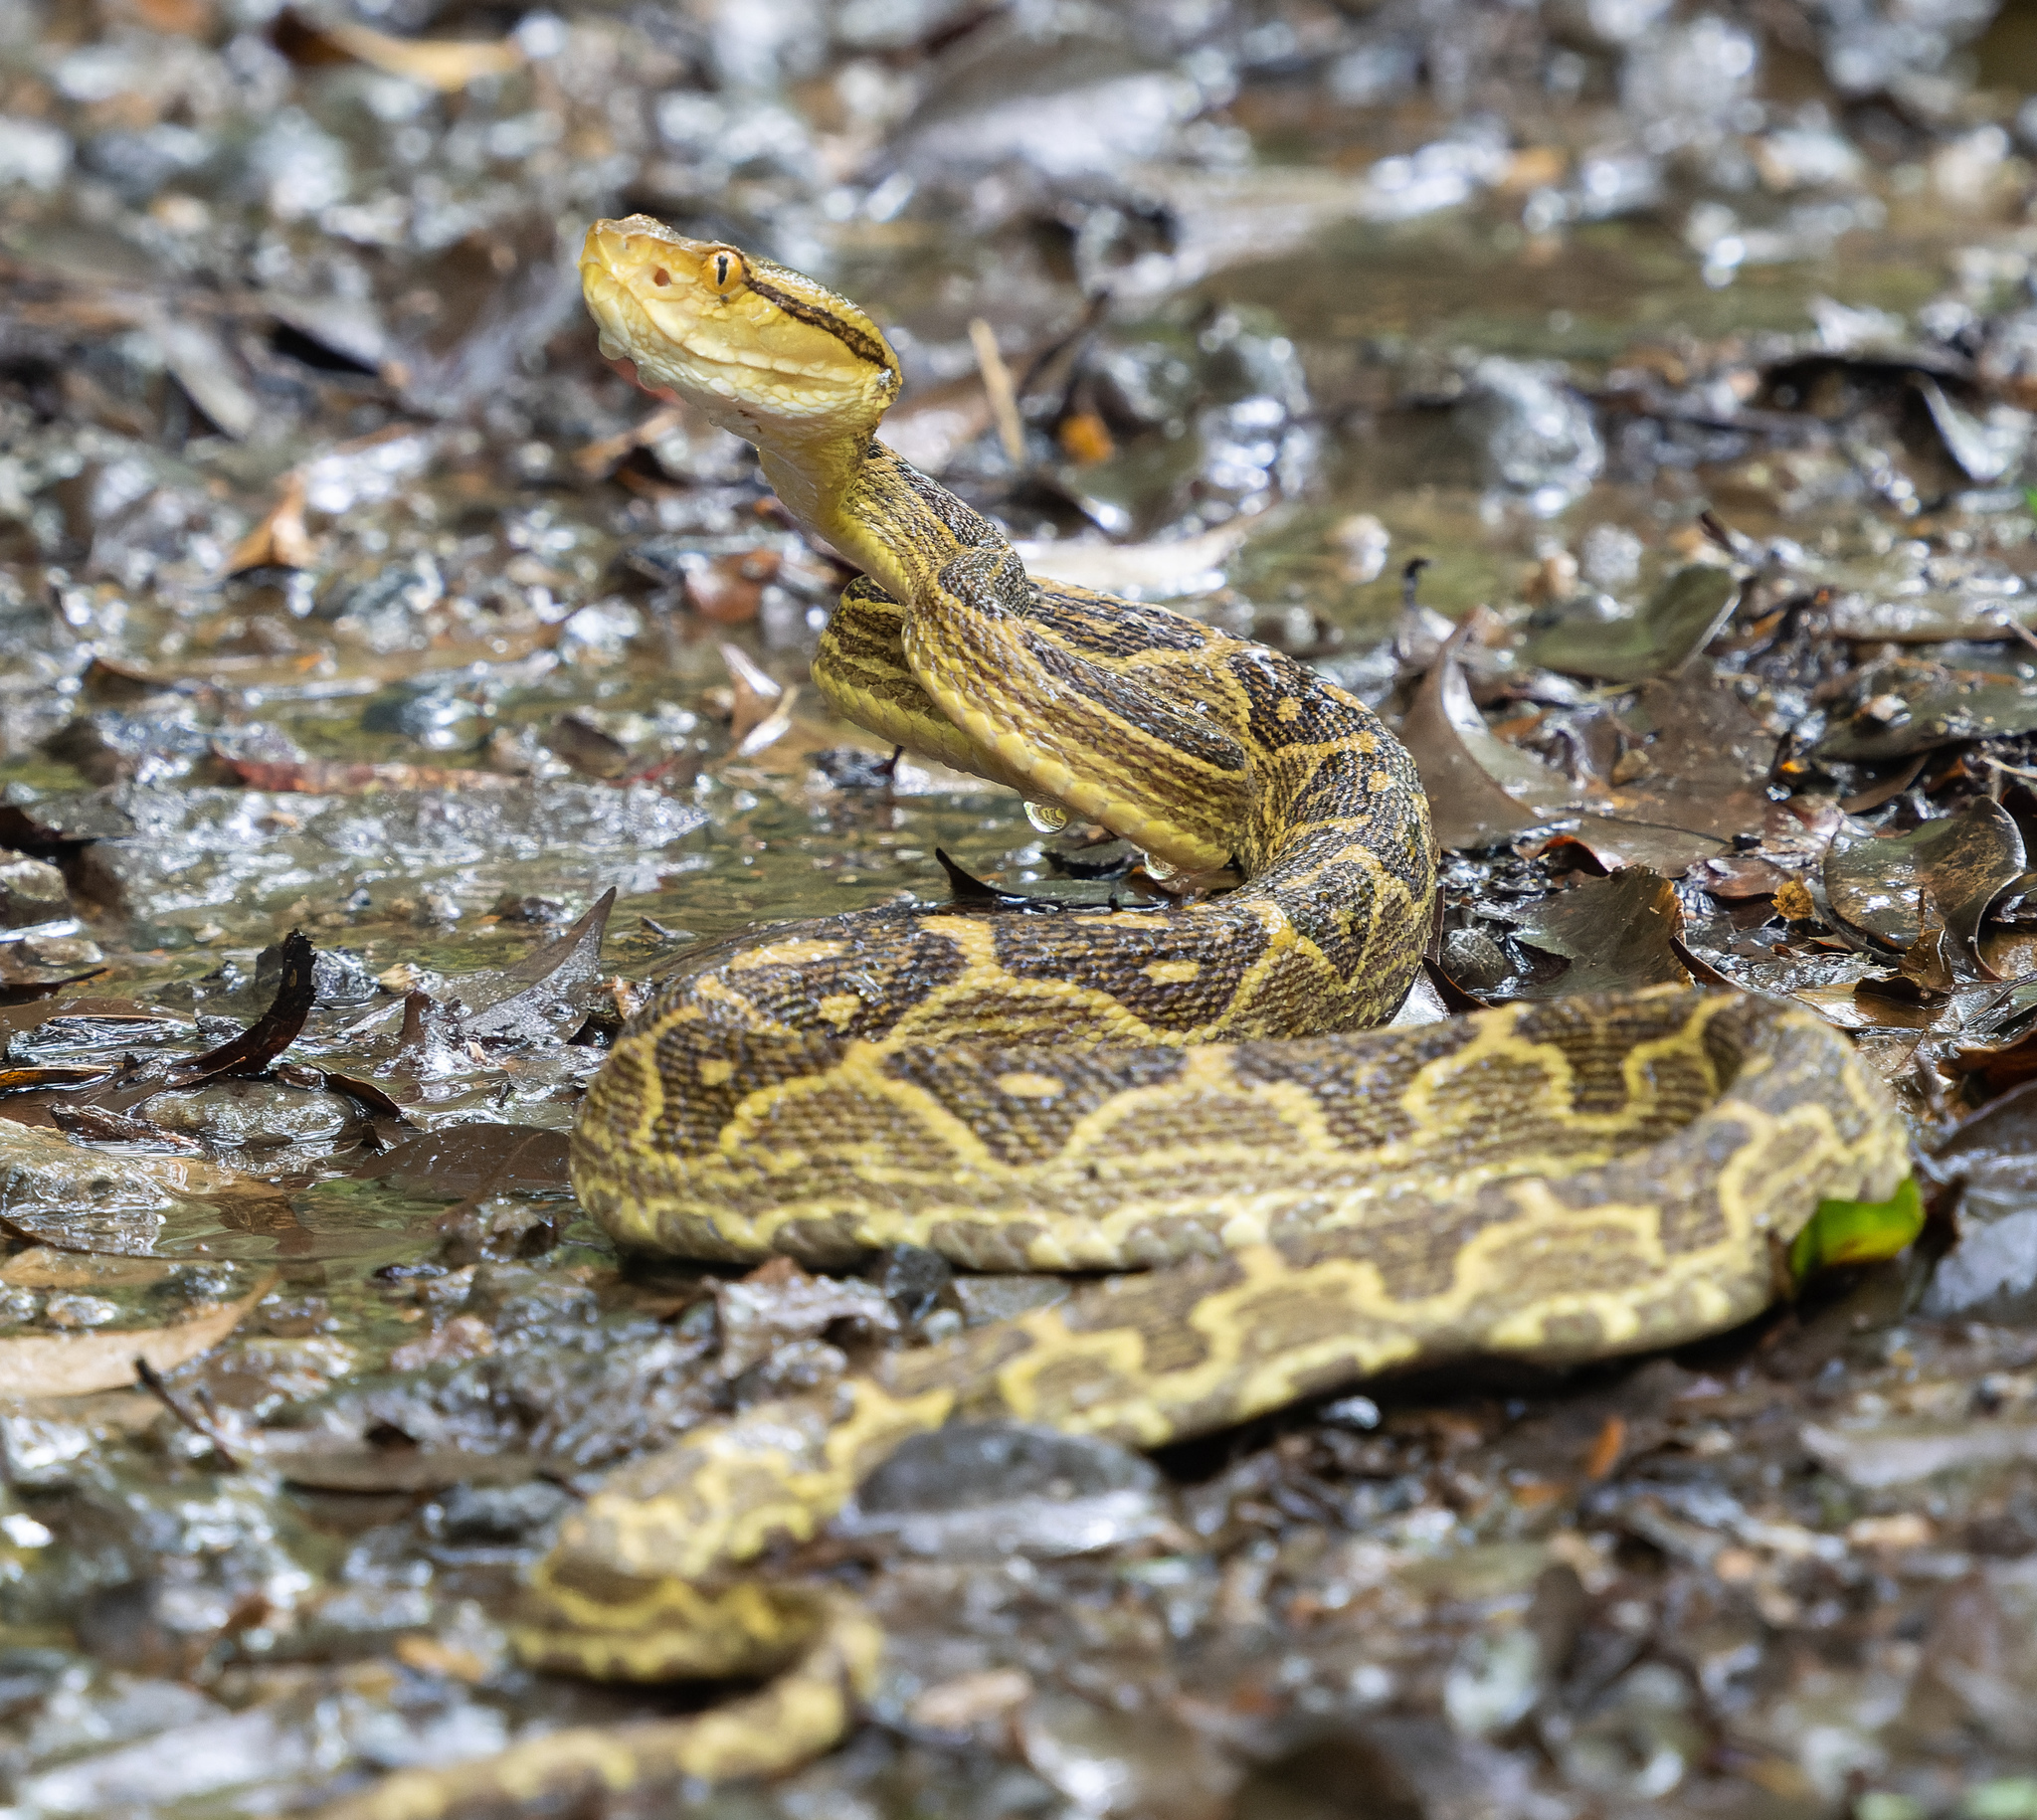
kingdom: Animalia
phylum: Chordata
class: Squamata
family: Viperidae
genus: Protobothrops
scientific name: Protobothrops flavoviridis
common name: Habu
